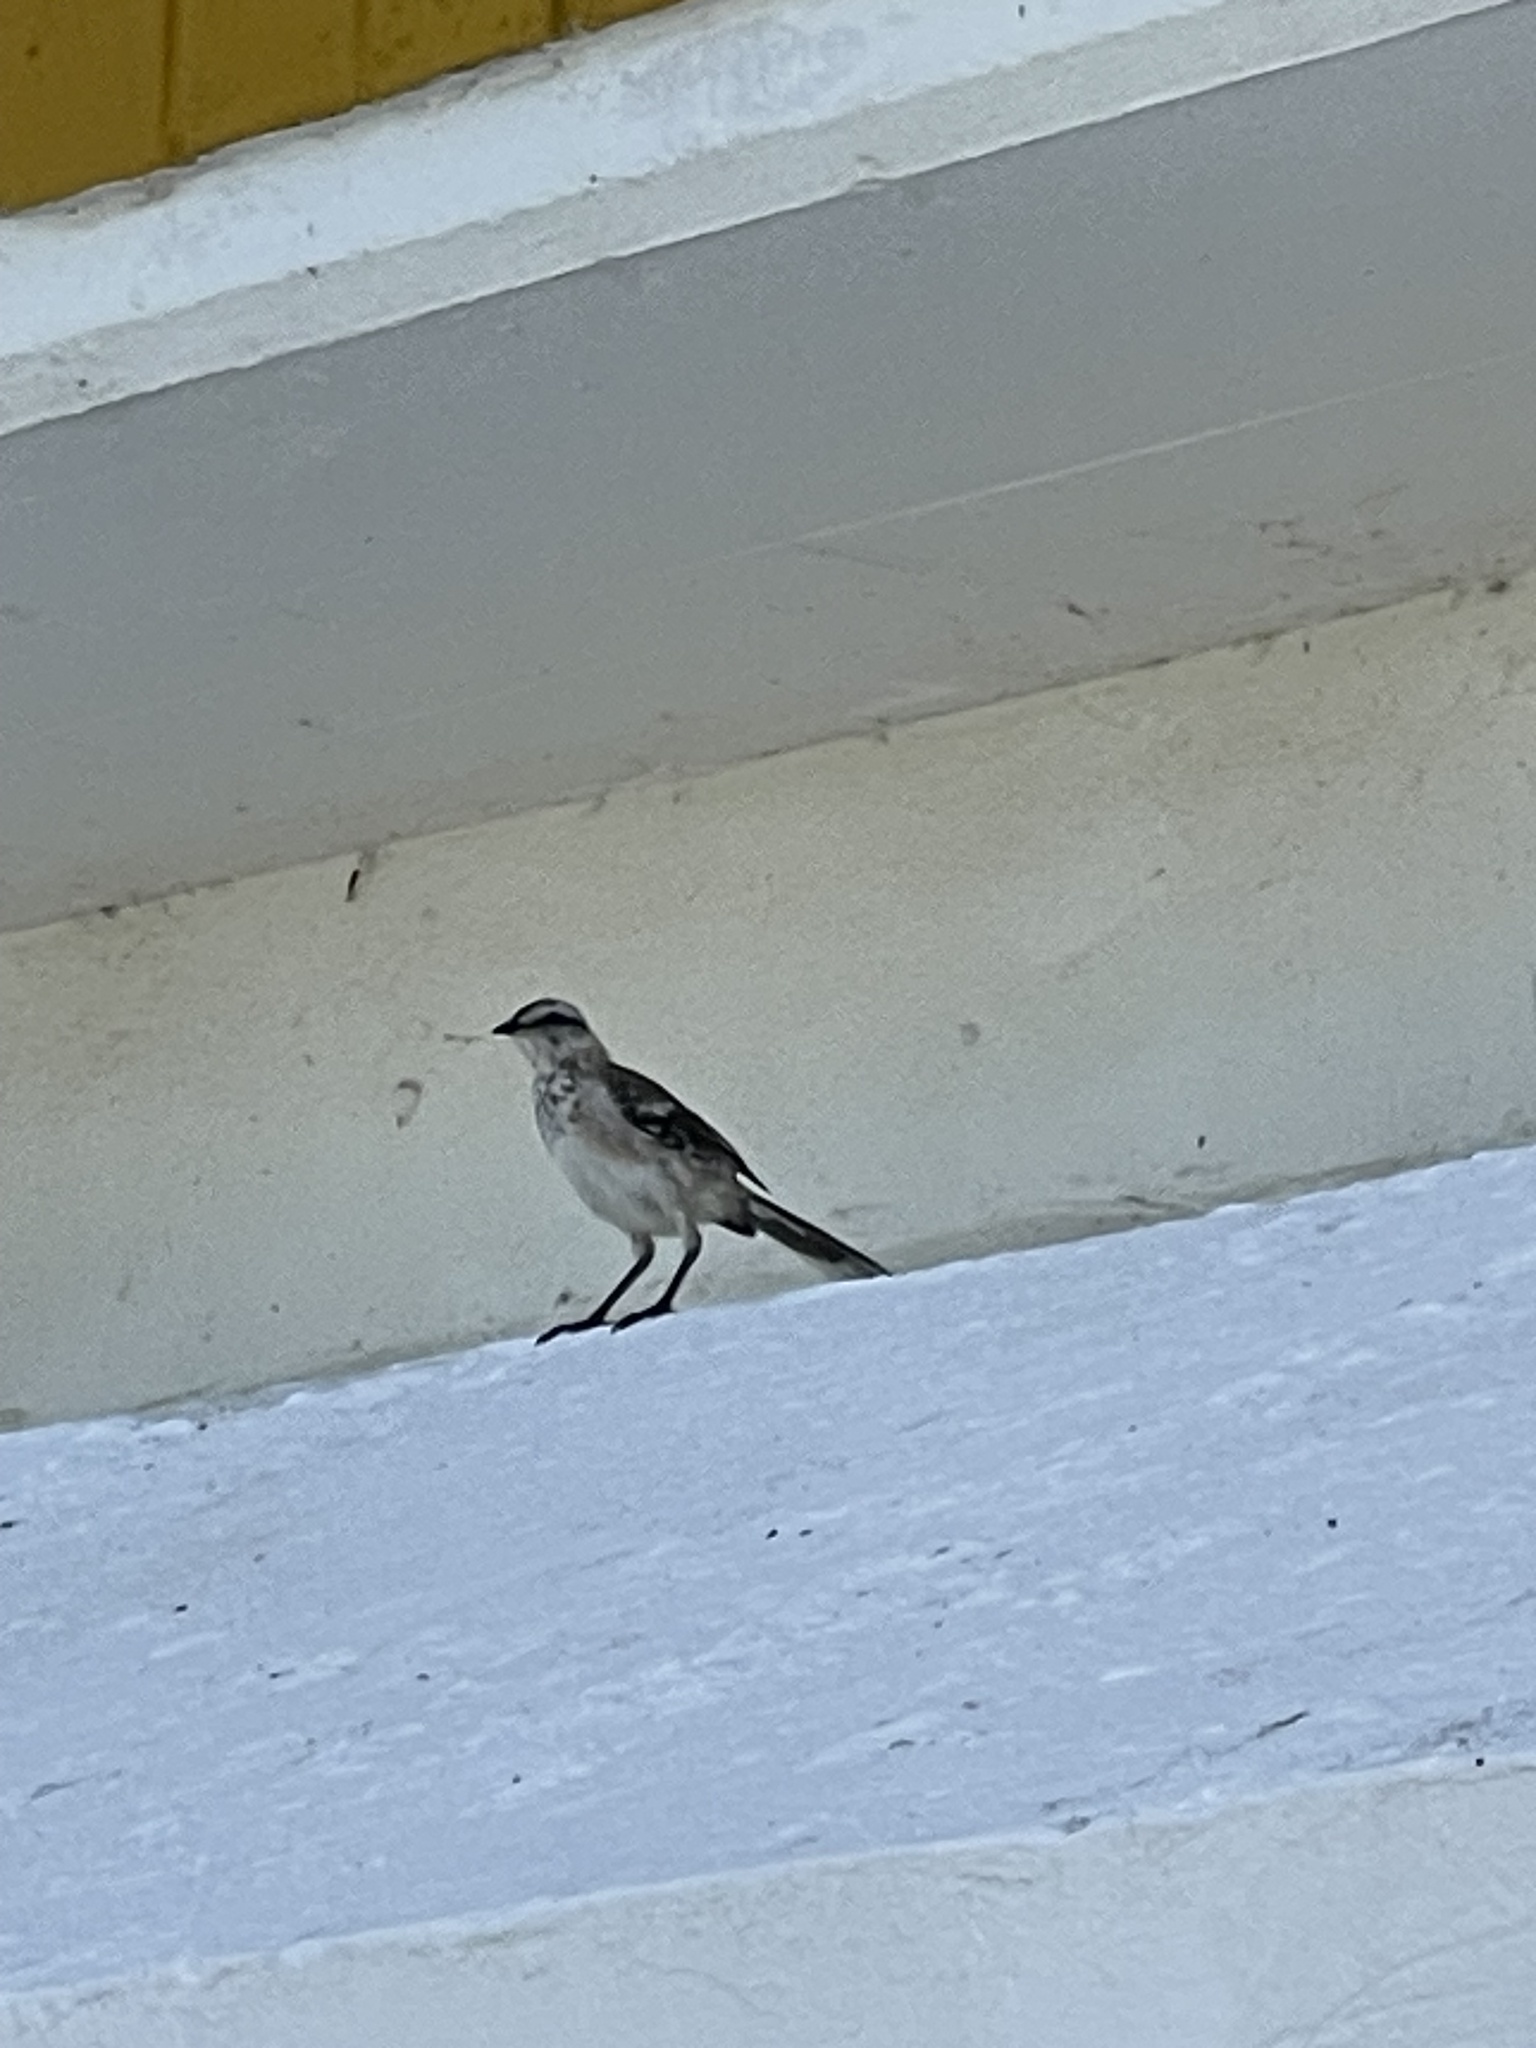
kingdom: Animalia
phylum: Chordata
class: Aves
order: Passeriformes
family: Mimidae
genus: Mimus
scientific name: Mimus saturninus
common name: Chalk-browed mockingbird
